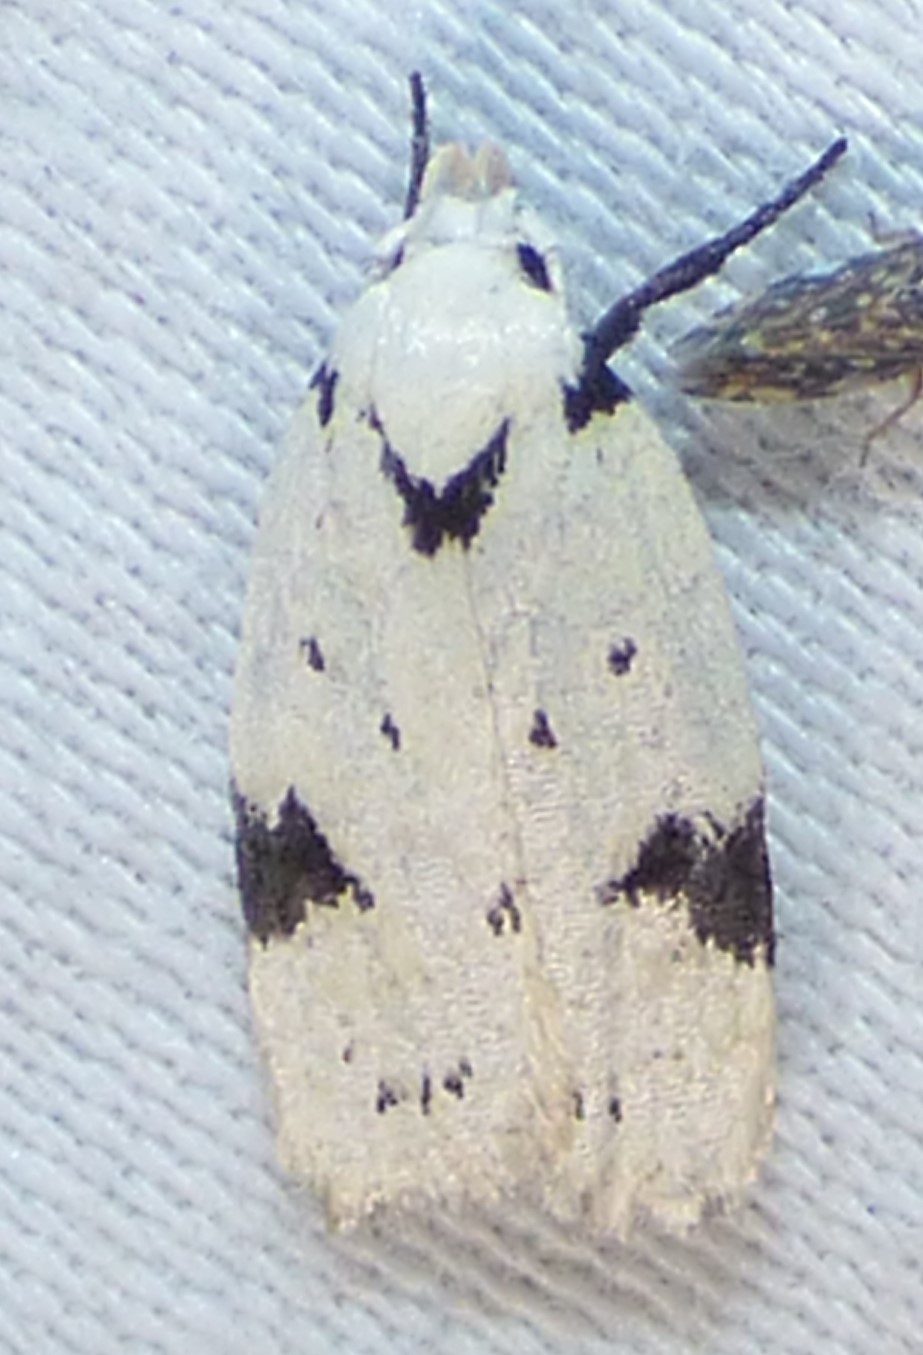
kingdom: Animalia
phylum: Arthropoda
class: Insecta
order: Lepidoptera
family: Oecophoridae
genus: Inga
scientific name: Inga sparsiciliella
